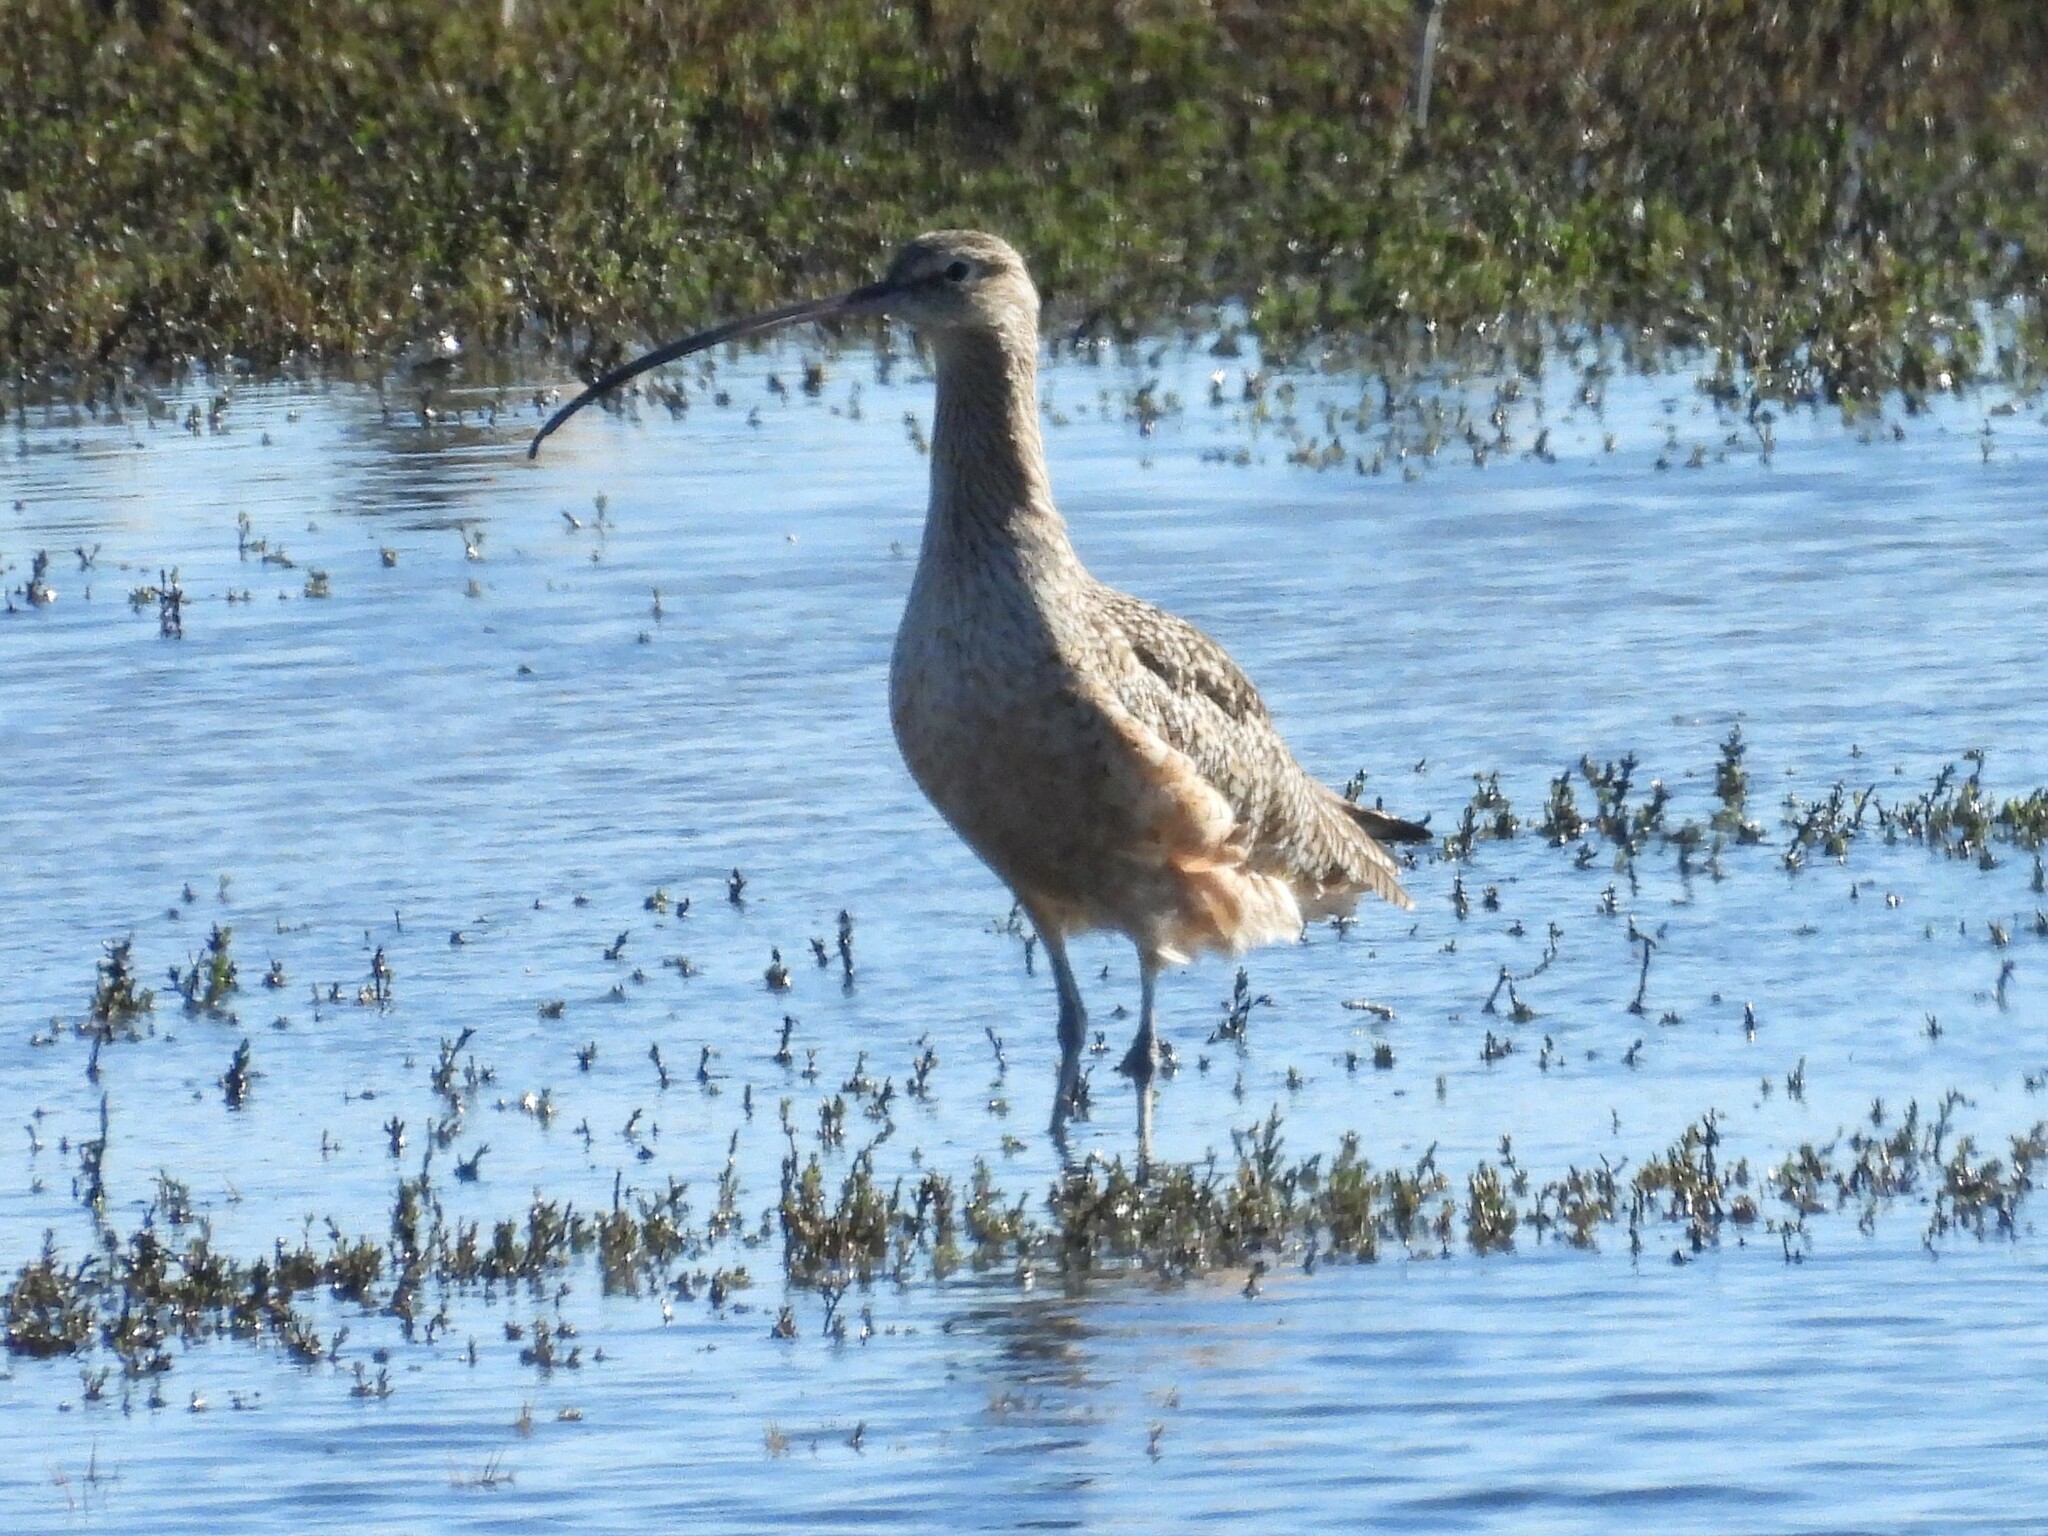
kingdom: Animalia
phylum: Chordata
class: Aves
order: Charadriiformes
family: Scolopacidae
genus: Numenius
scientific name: Numenius americanus
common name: Long-billed curlew
